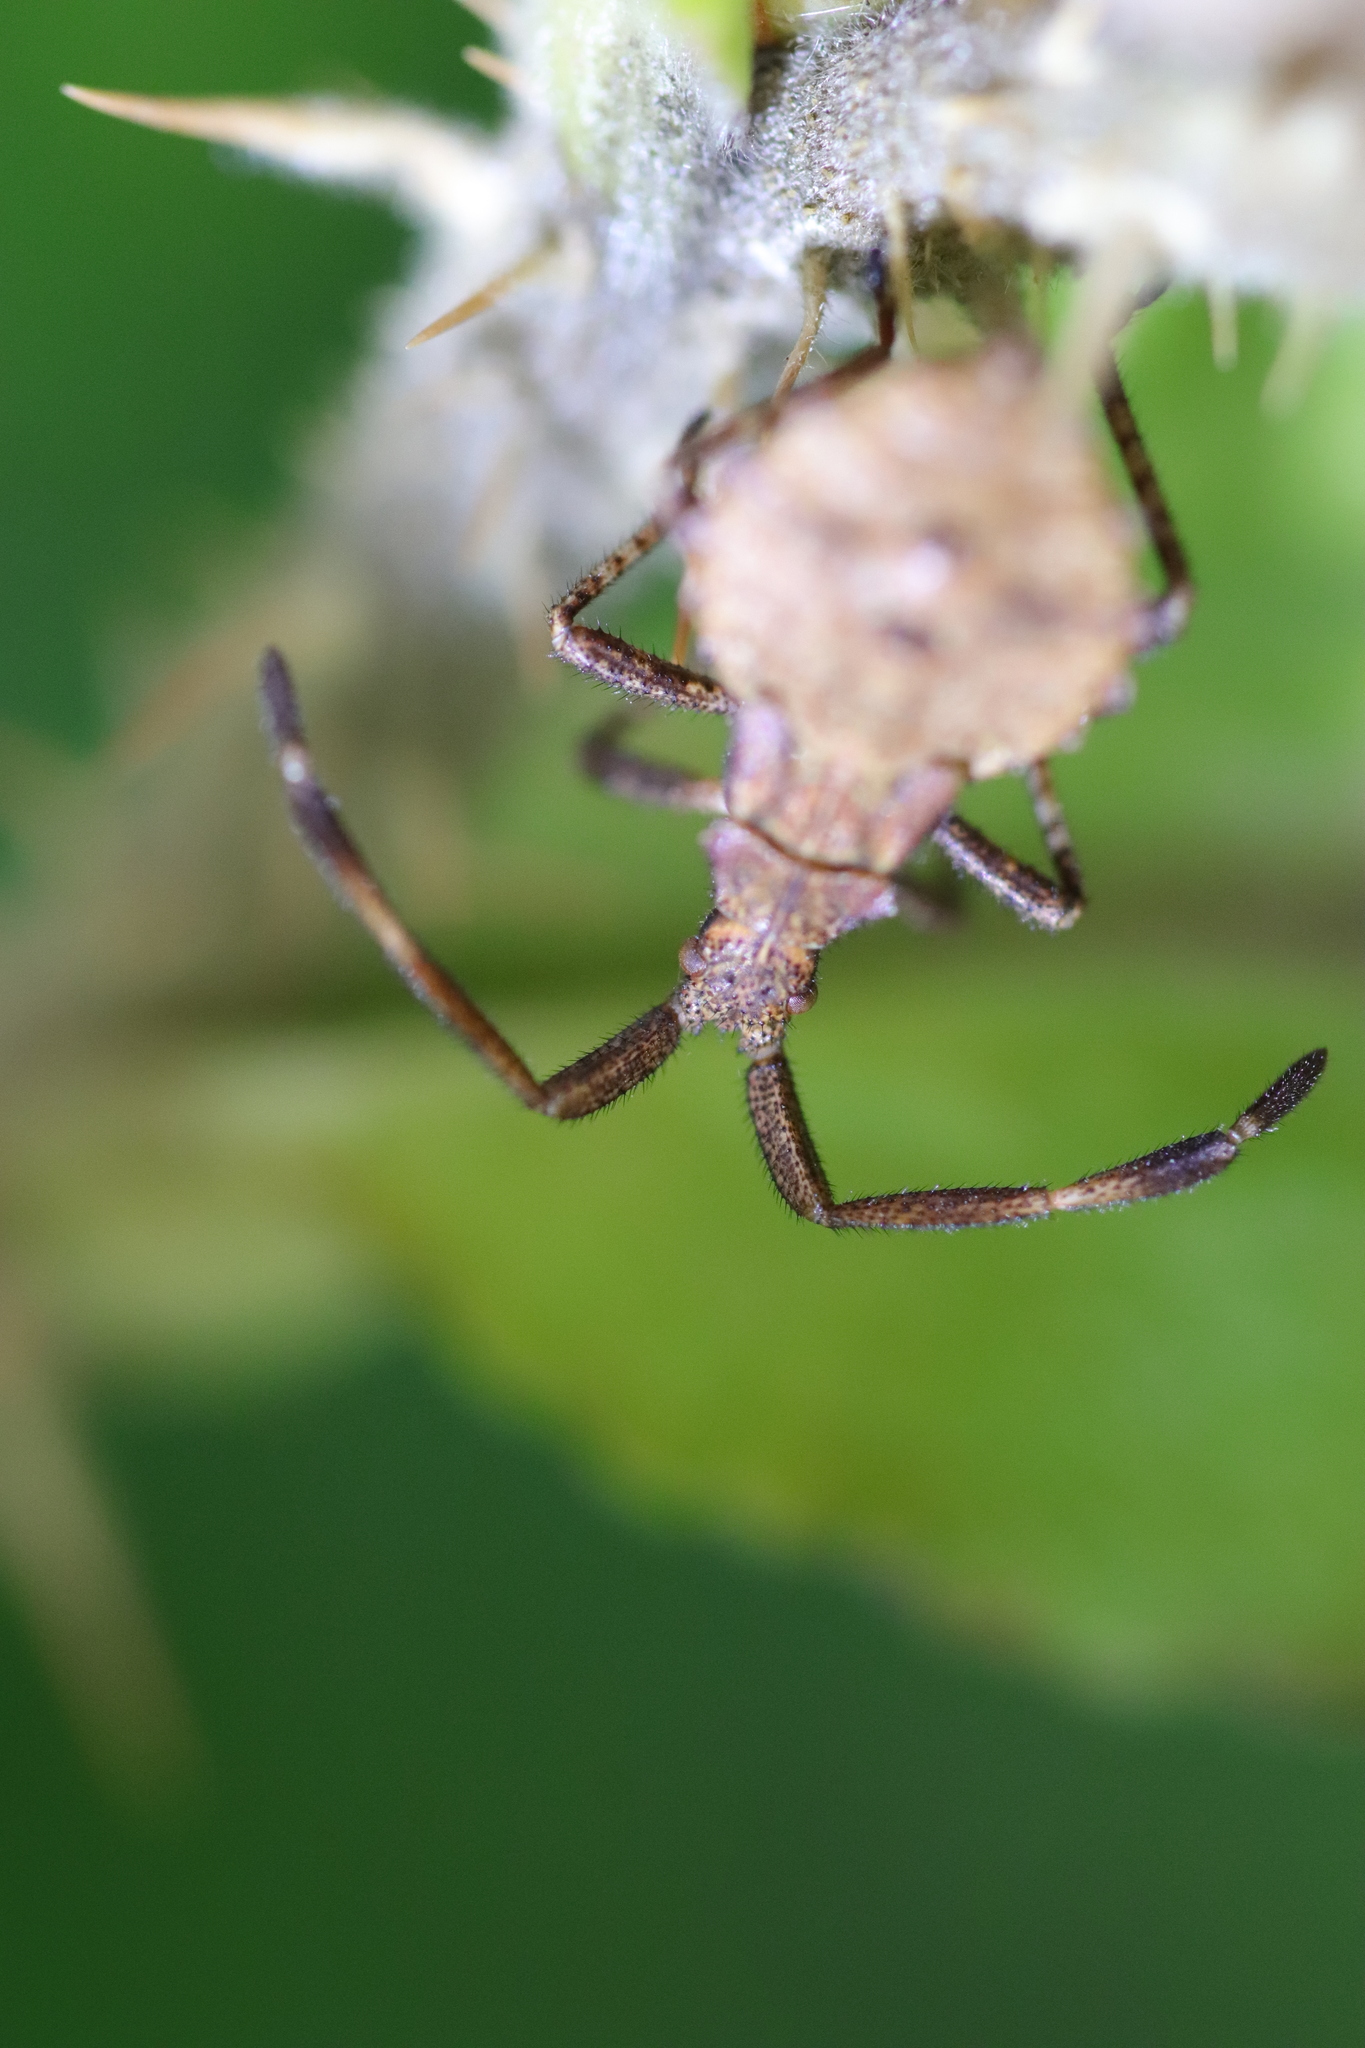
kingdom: Animalia
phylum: Arthropoda
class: Insecta
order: Hemiptera
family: Coreidae
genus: Coreus
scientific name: Coreus marginatus
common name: Dock bug
